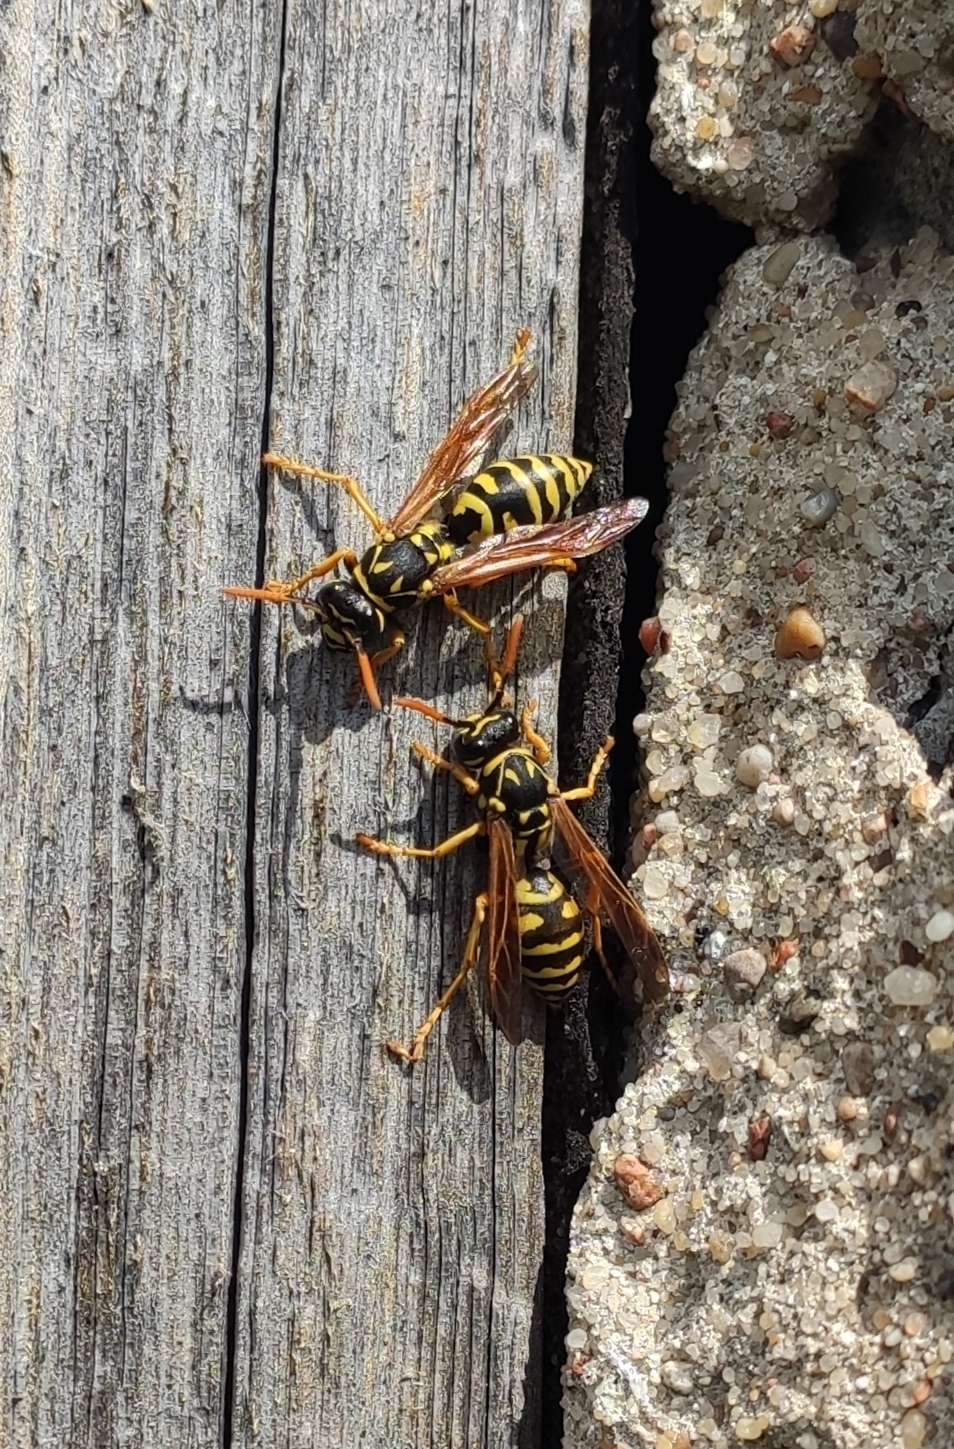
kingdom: Animalia
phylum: Arthropoda
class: Insecta
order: Hymenoptera
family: Eumenidae
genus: Polistes
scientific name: Polistes dominula
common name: Paper wasp
